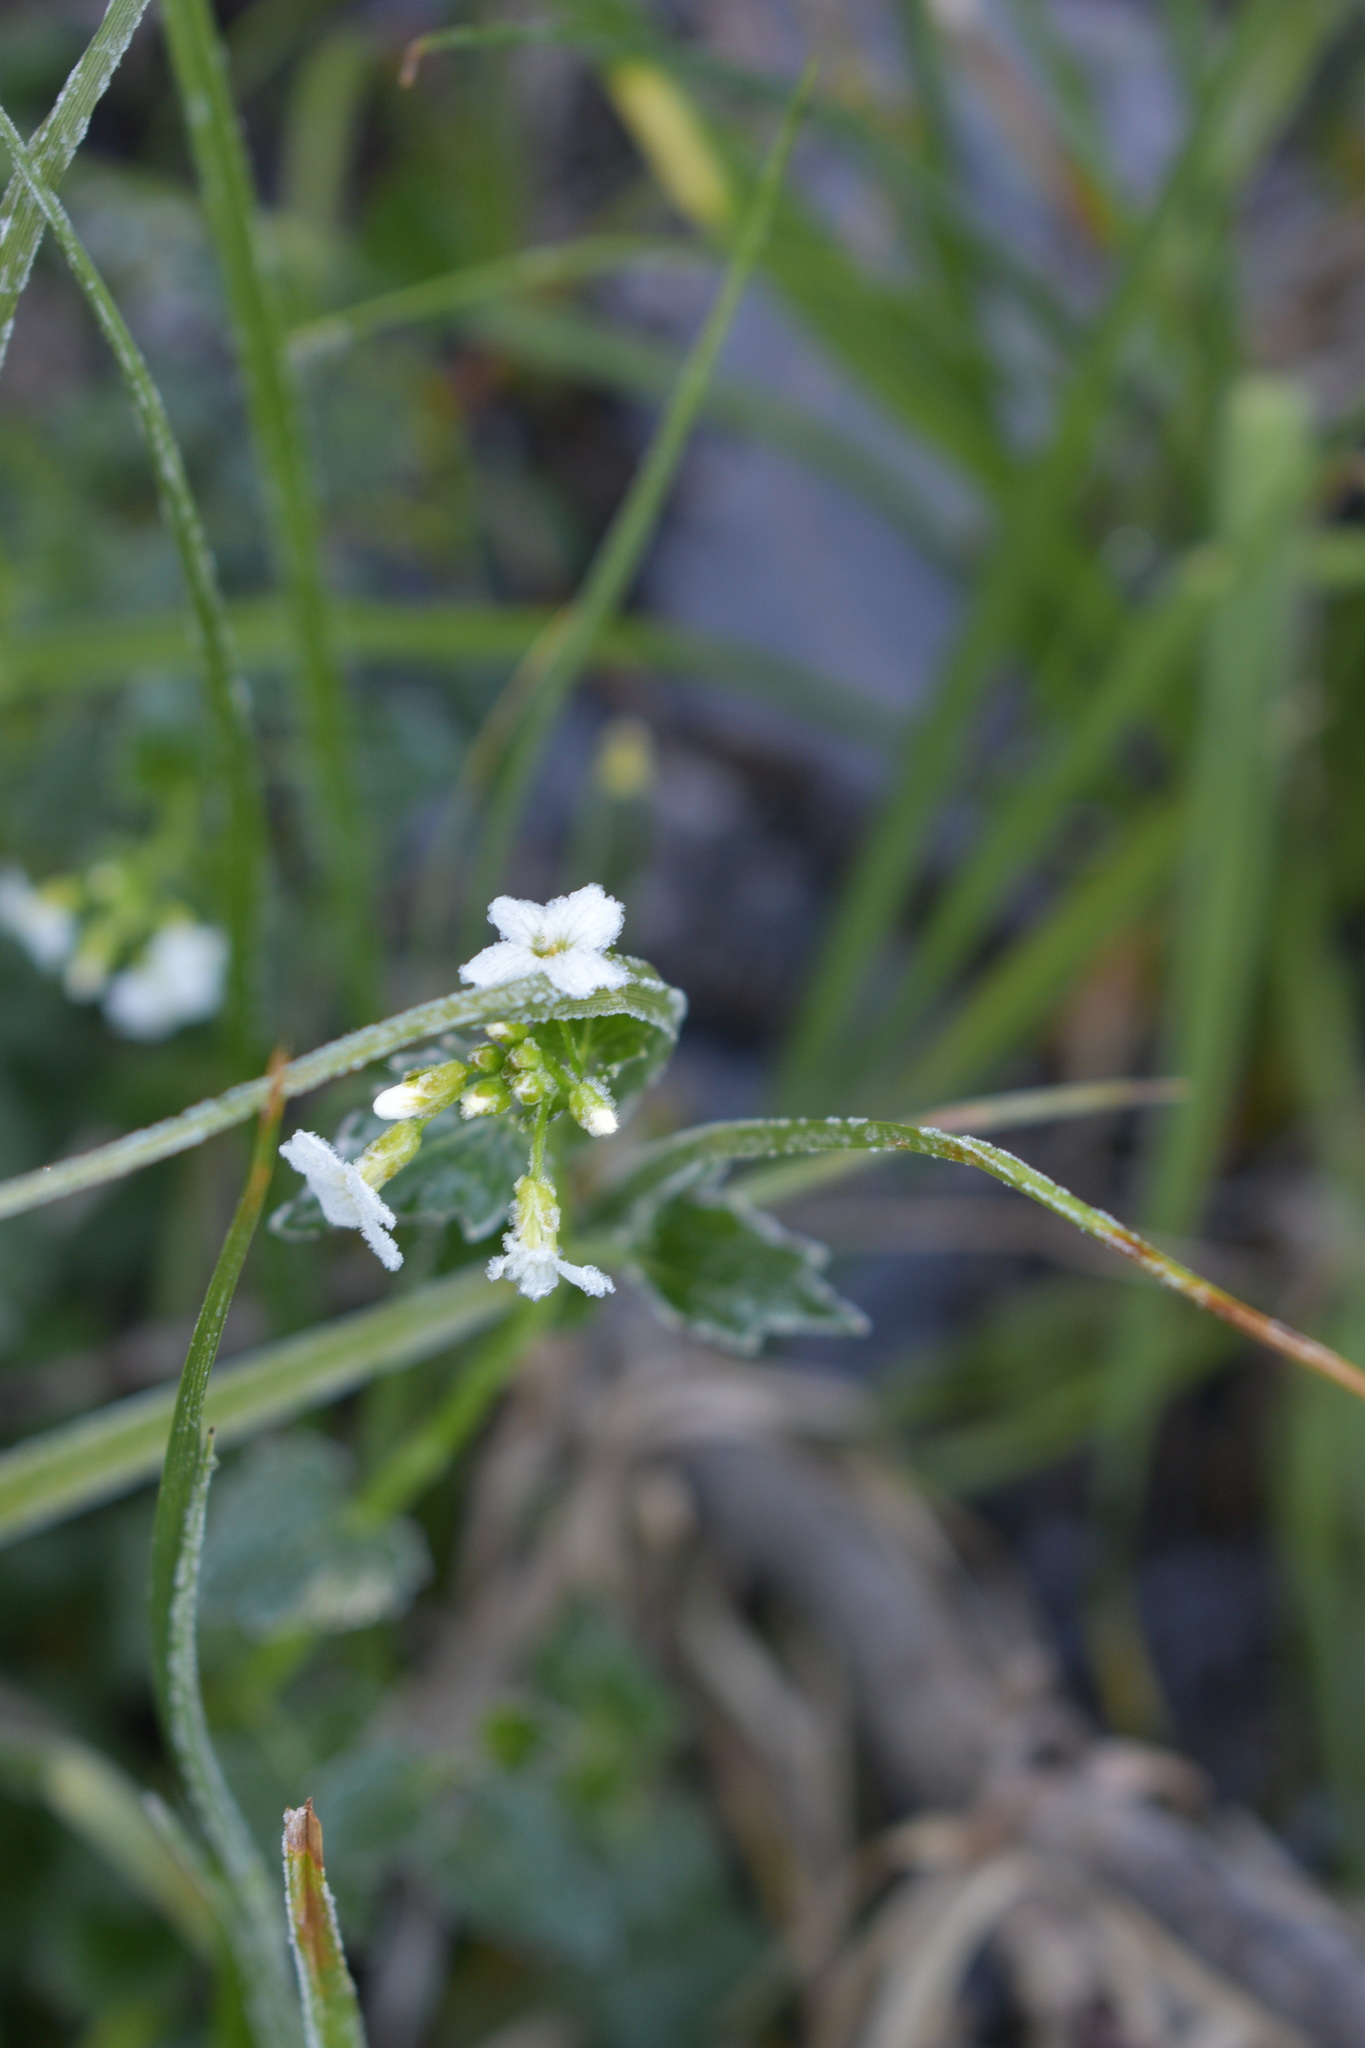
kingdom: Plantae
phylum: Tracheophyta
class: Magnoliopsida
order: Brassicales
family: Brassicaceae
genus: Cardamine
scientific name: Cardamine cordifolia
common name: Heart-leaf bittercress
